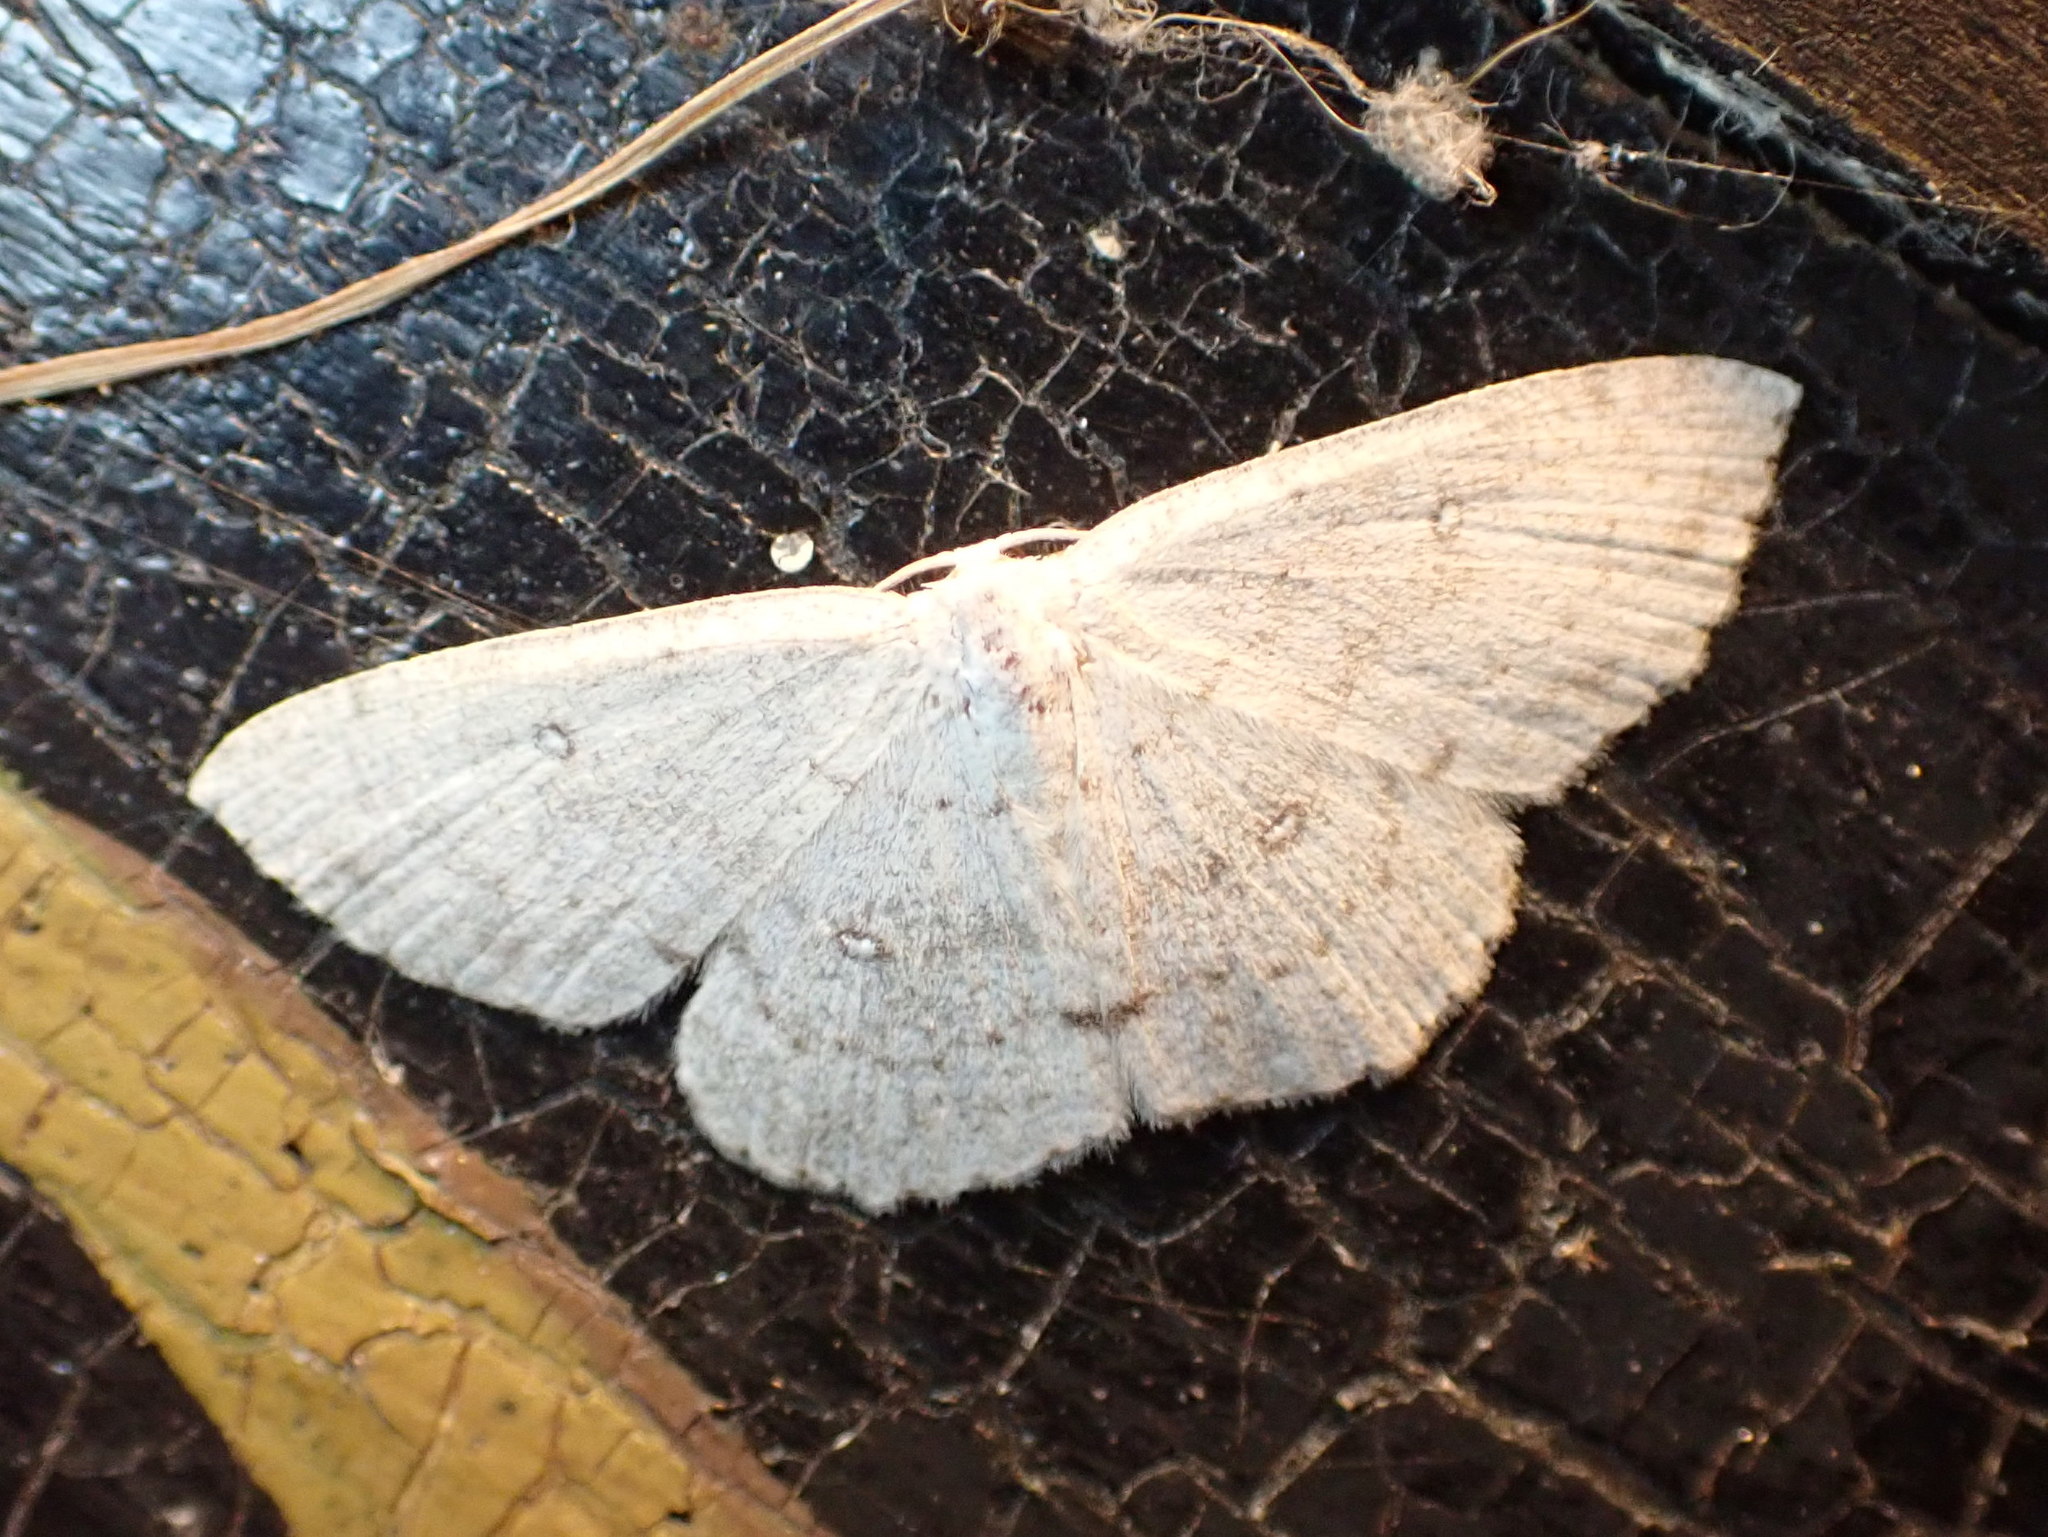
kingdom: Animalia
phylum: Arthropoda
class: Insecta
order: Lepidoptera
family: Geometridae
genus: Cyclophora
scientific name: Cyclophora pendulinaria
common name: Sweet fern geometer
